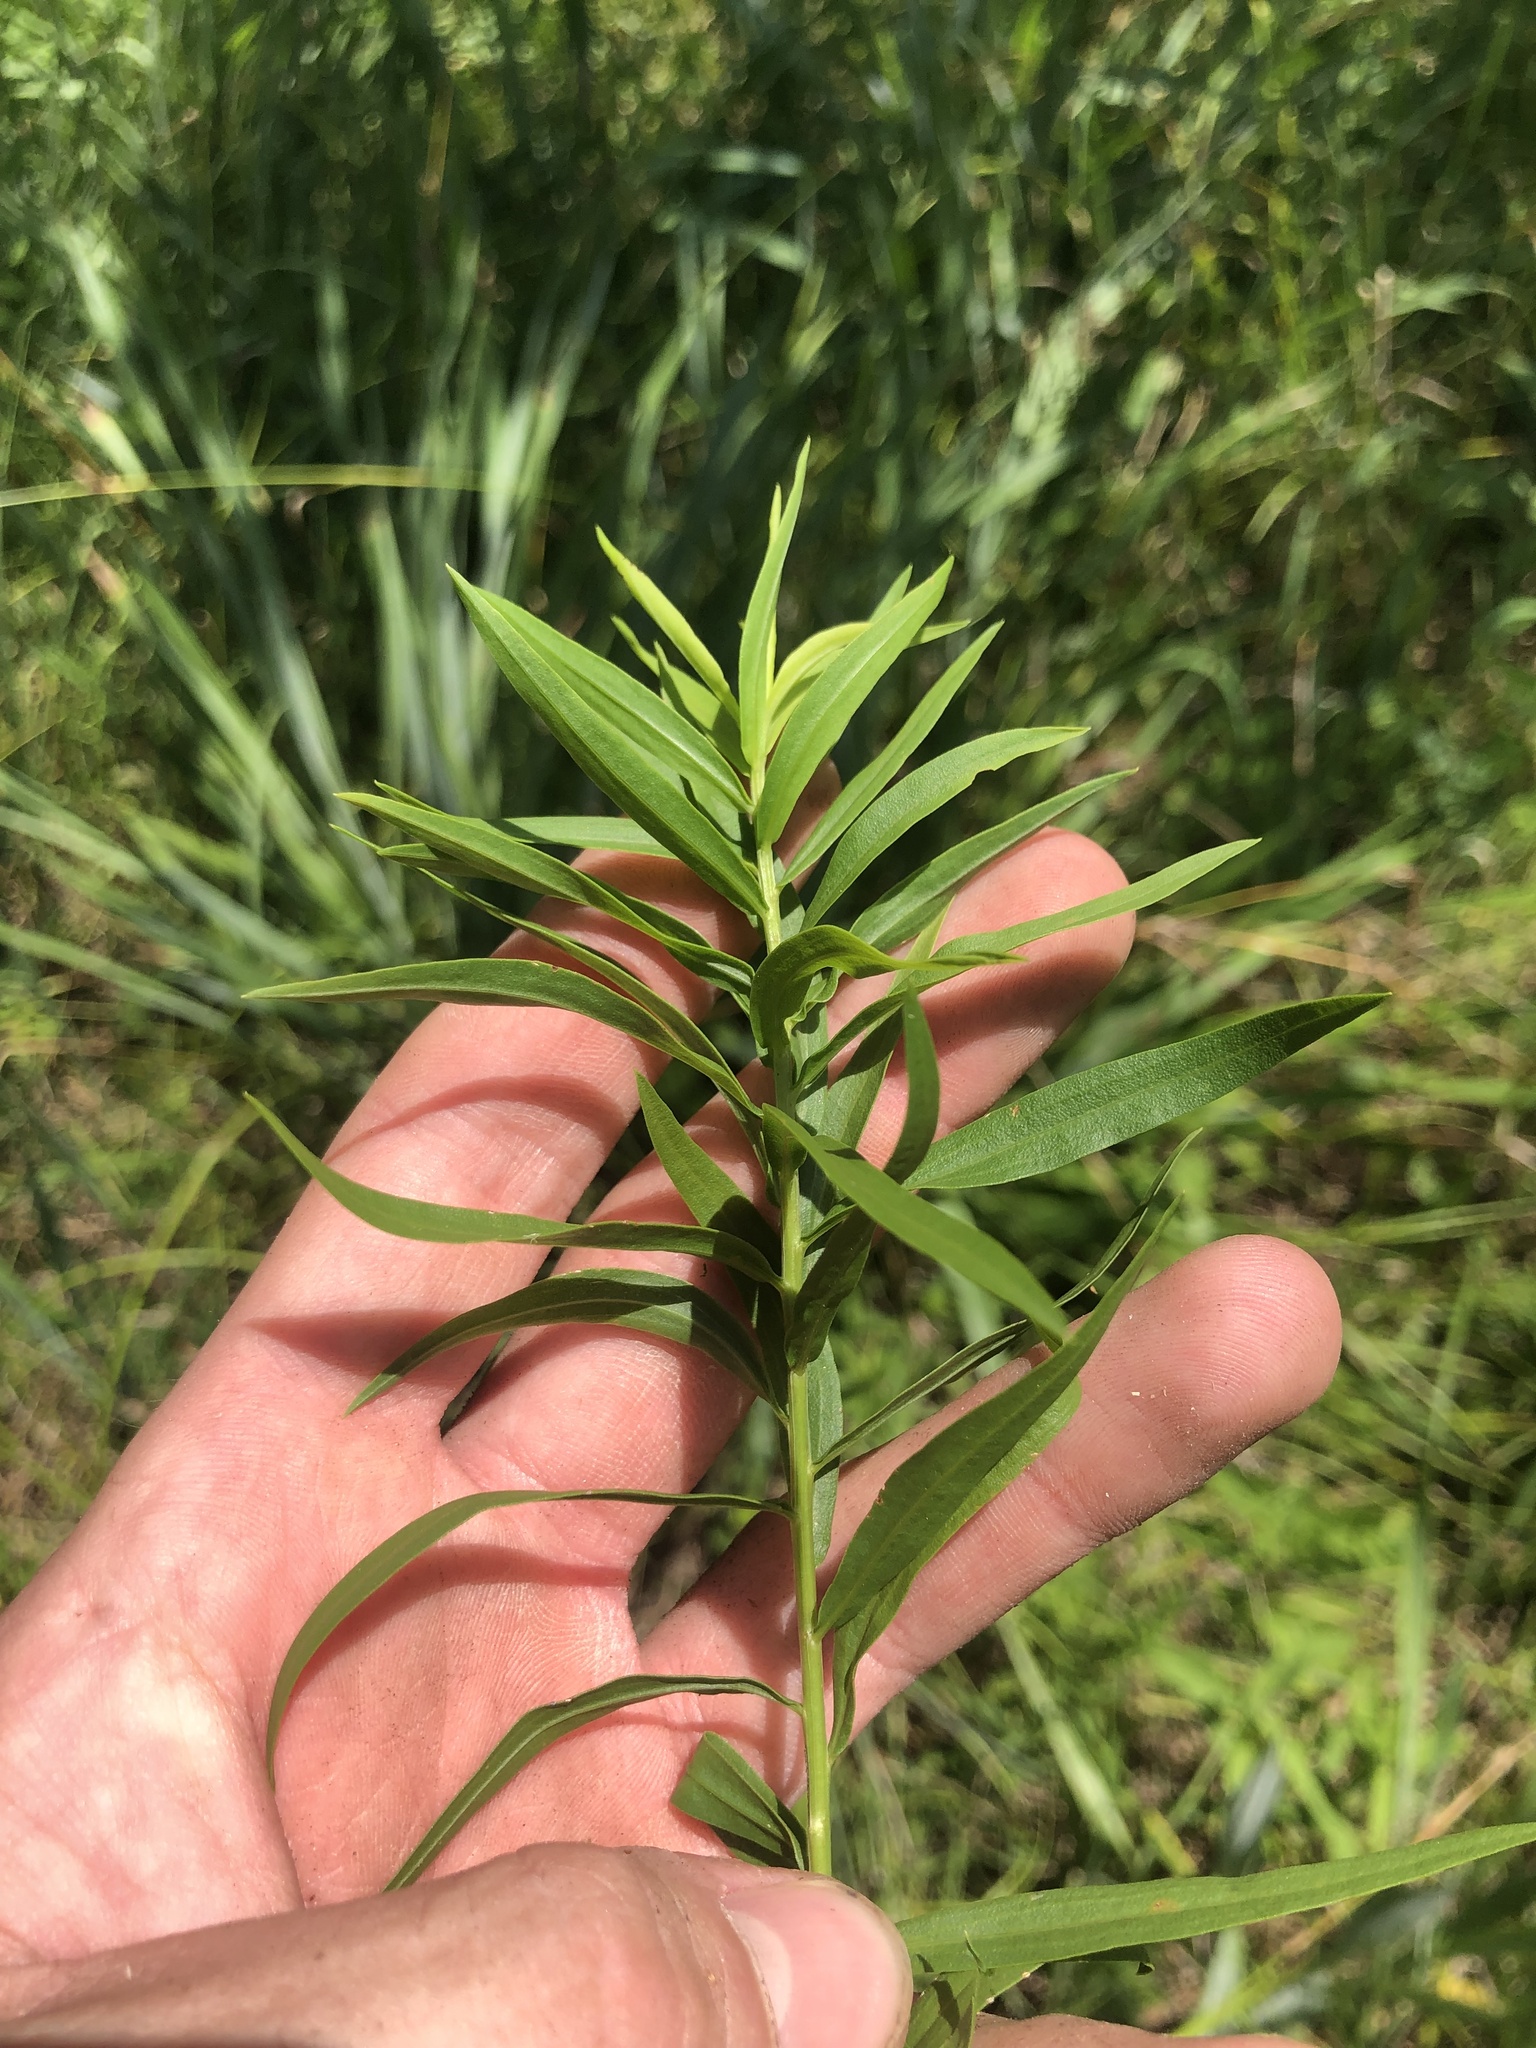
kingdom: Plantae
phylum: Tracheophyta
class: Magnoliopsida
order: Asterales
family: Asteraceae
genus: Euthamia
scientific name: Euthamia leptocephala
